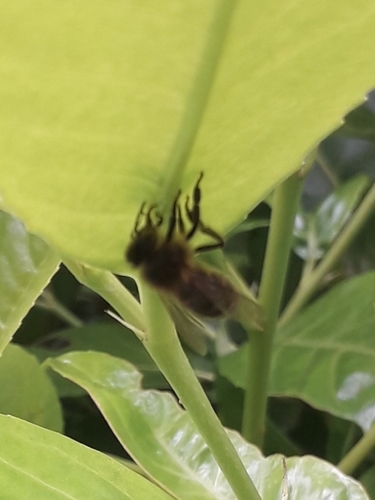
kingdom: Animalia
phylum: Arthropoda
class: Insecta
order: Hymenoptera
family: Apidae
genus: Apis
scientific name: Apis mellifera
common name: Honey bee
